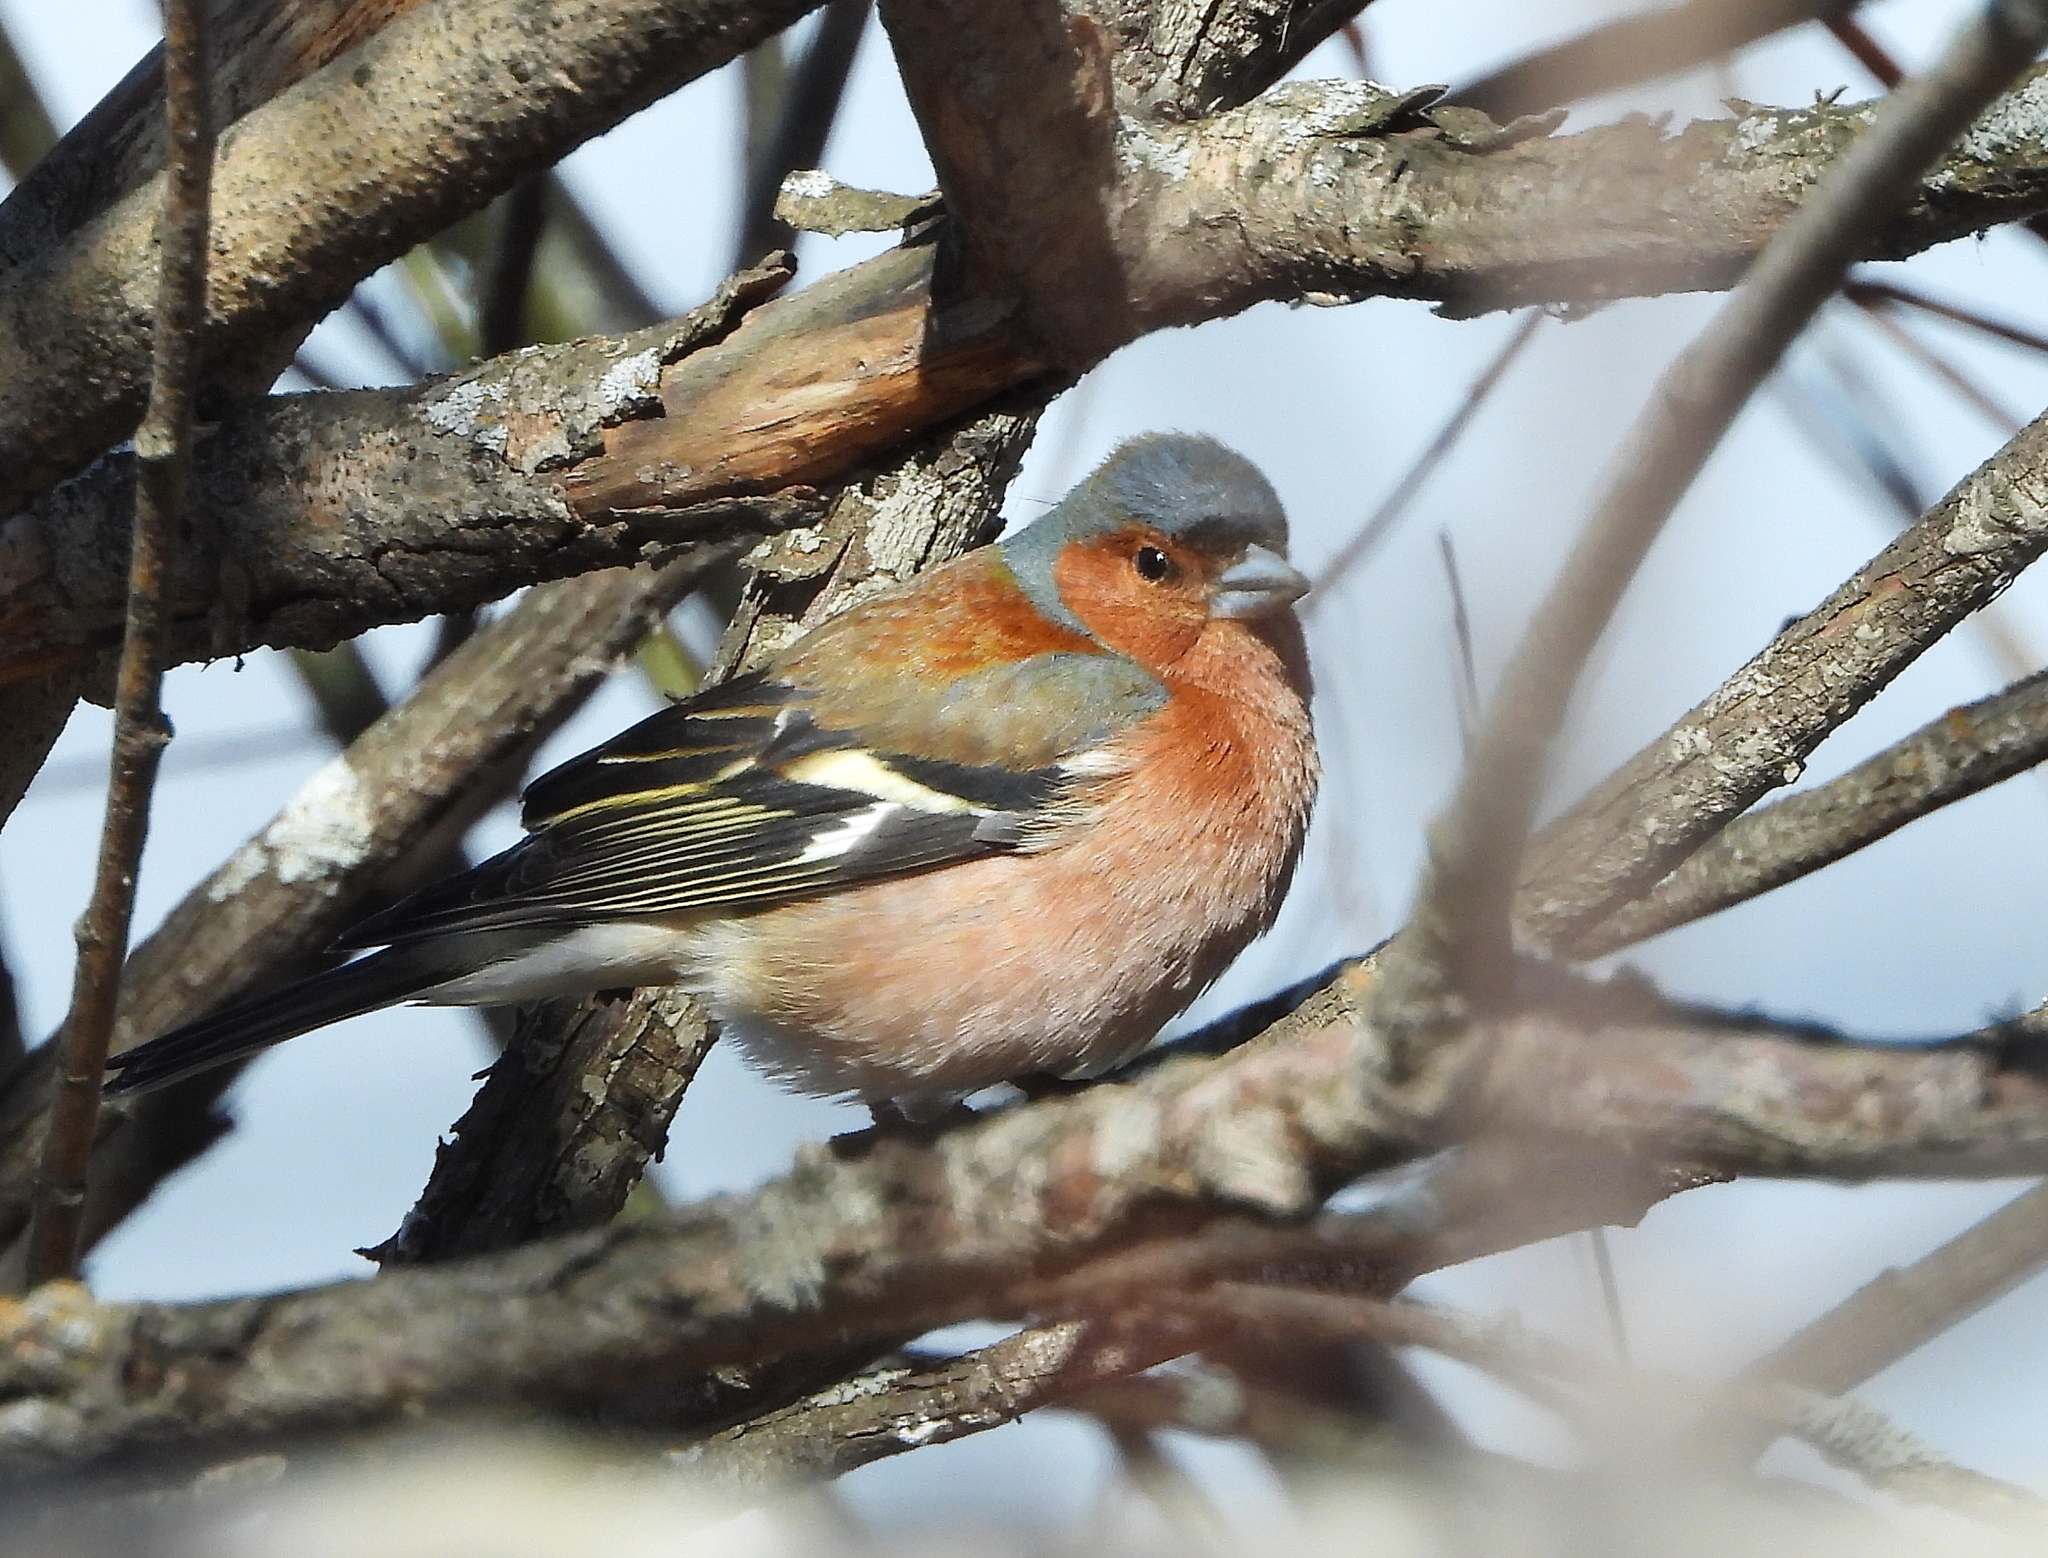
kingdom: Animalia
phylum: Chordata
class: Aves
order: Passeriformes
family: Fringillidae
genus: Fringilla
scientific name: Fringilla coelebs
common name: Common chaffinch
